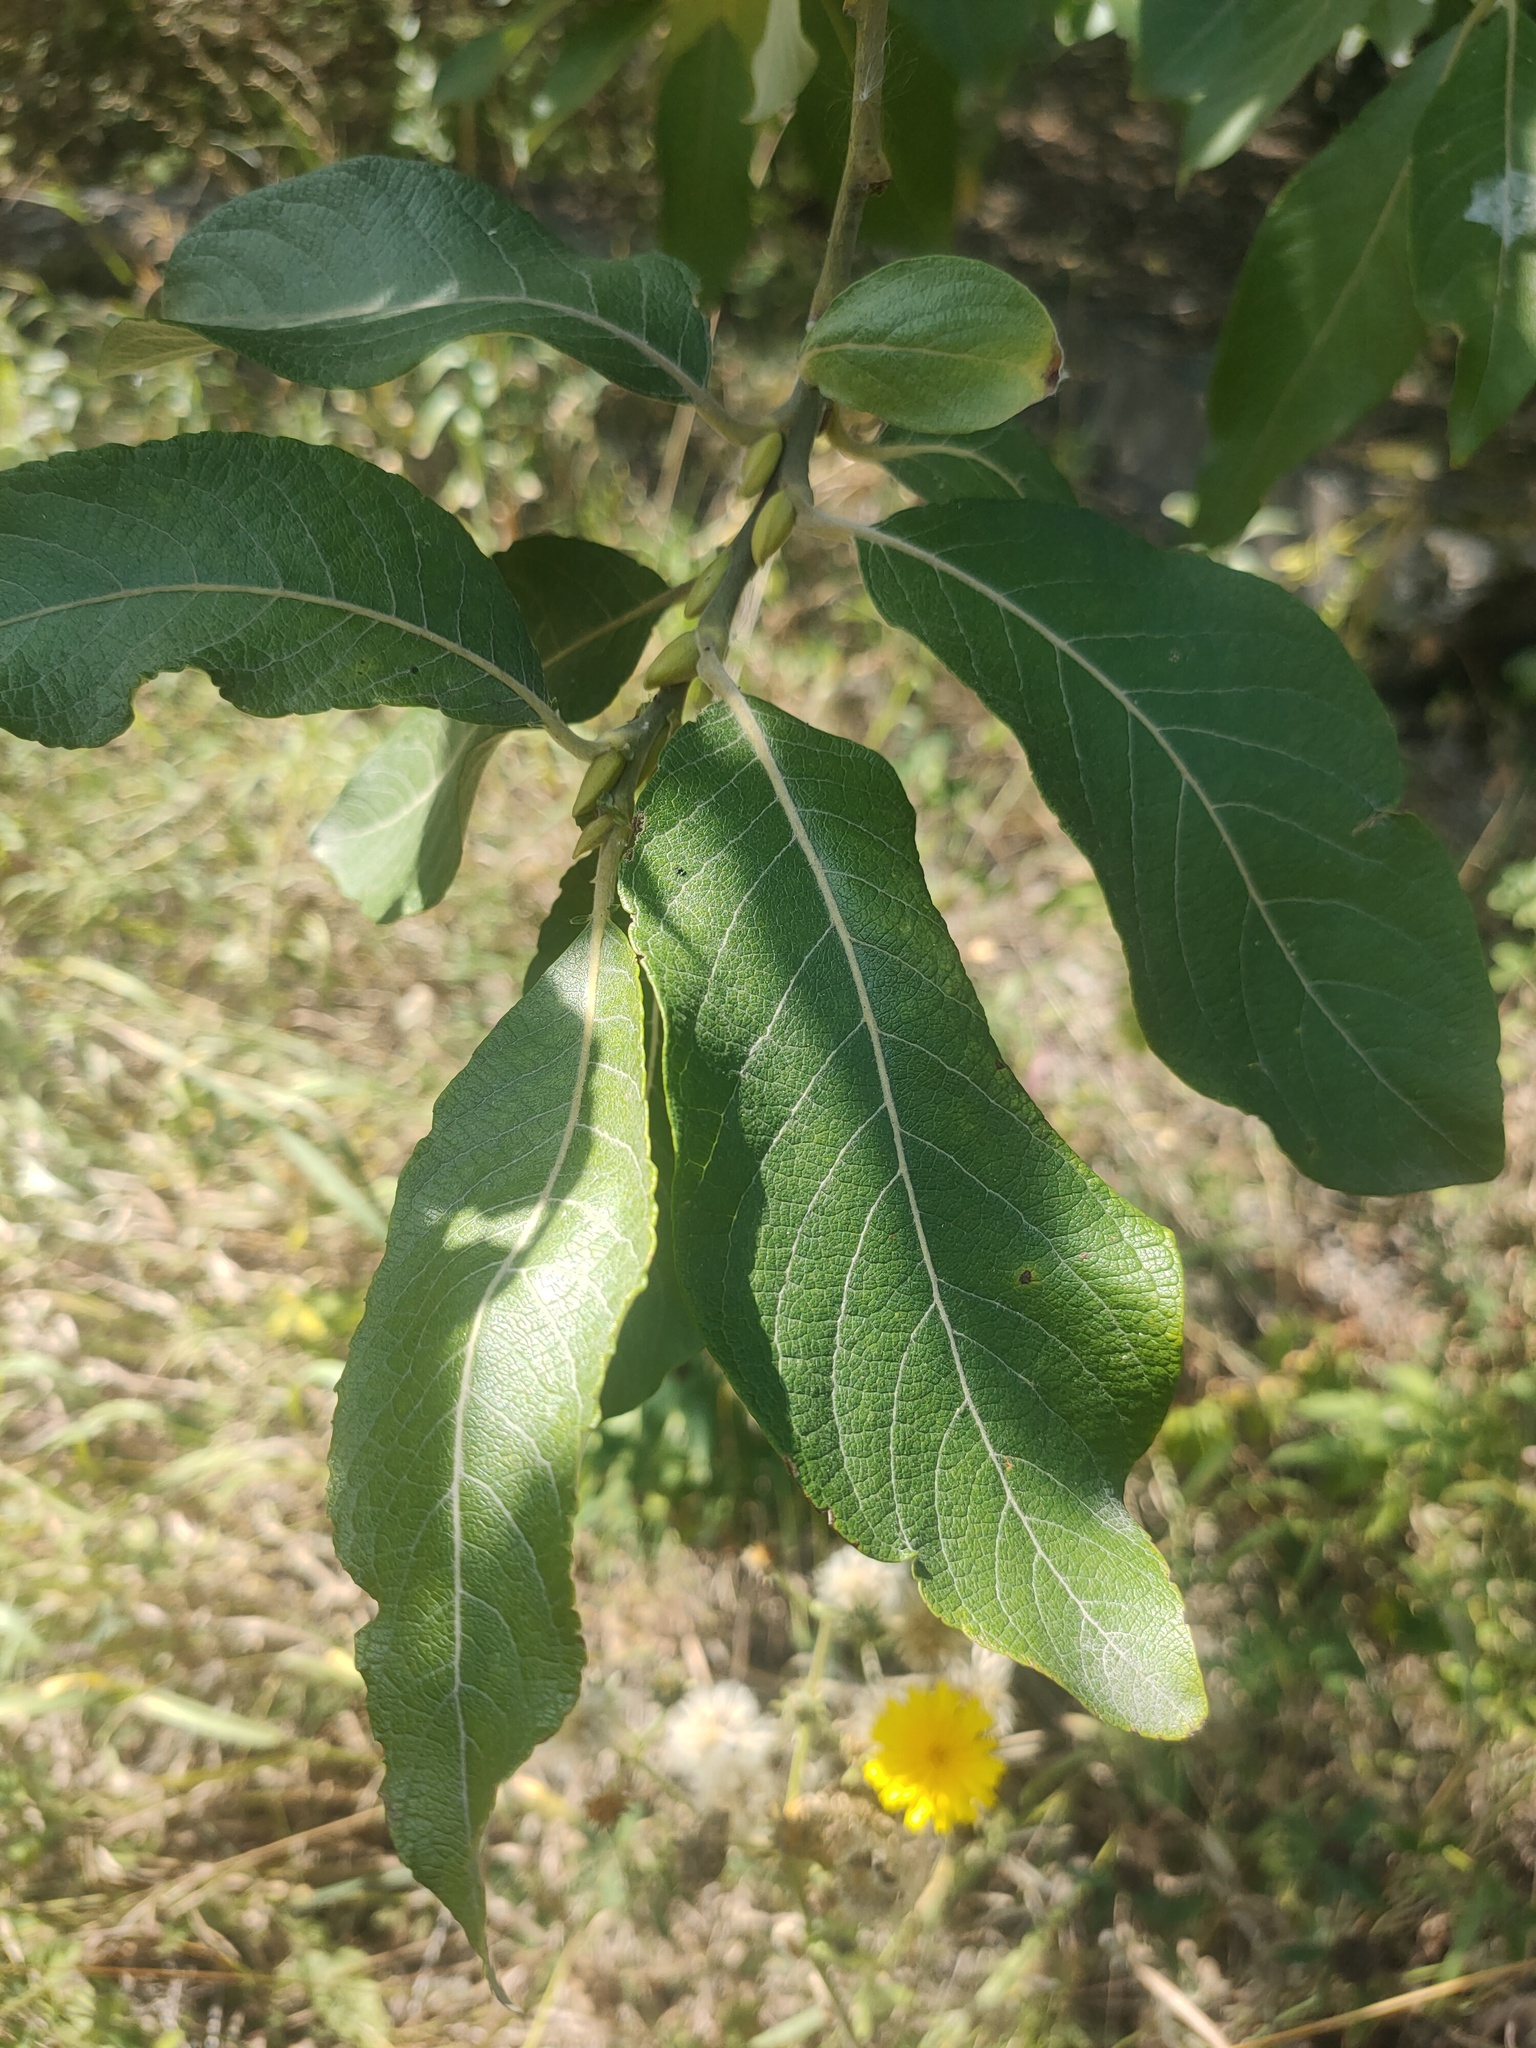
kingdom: Plantae
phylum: Tracheophyta
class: Magnoliopsida
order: Malpighiales
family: Salicaceae
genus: Salix
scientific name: Salix caprea
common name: Goat willow
